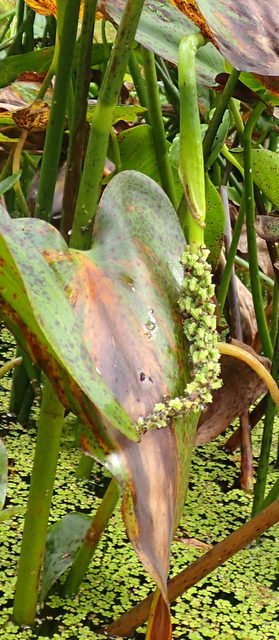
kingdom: Plantae
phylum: Tracheophyta
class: Liliopsida
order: Commelinales
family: Pontederiaceae
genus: Pontederia
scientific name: Pontederia cordata
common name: Pickerelweed
